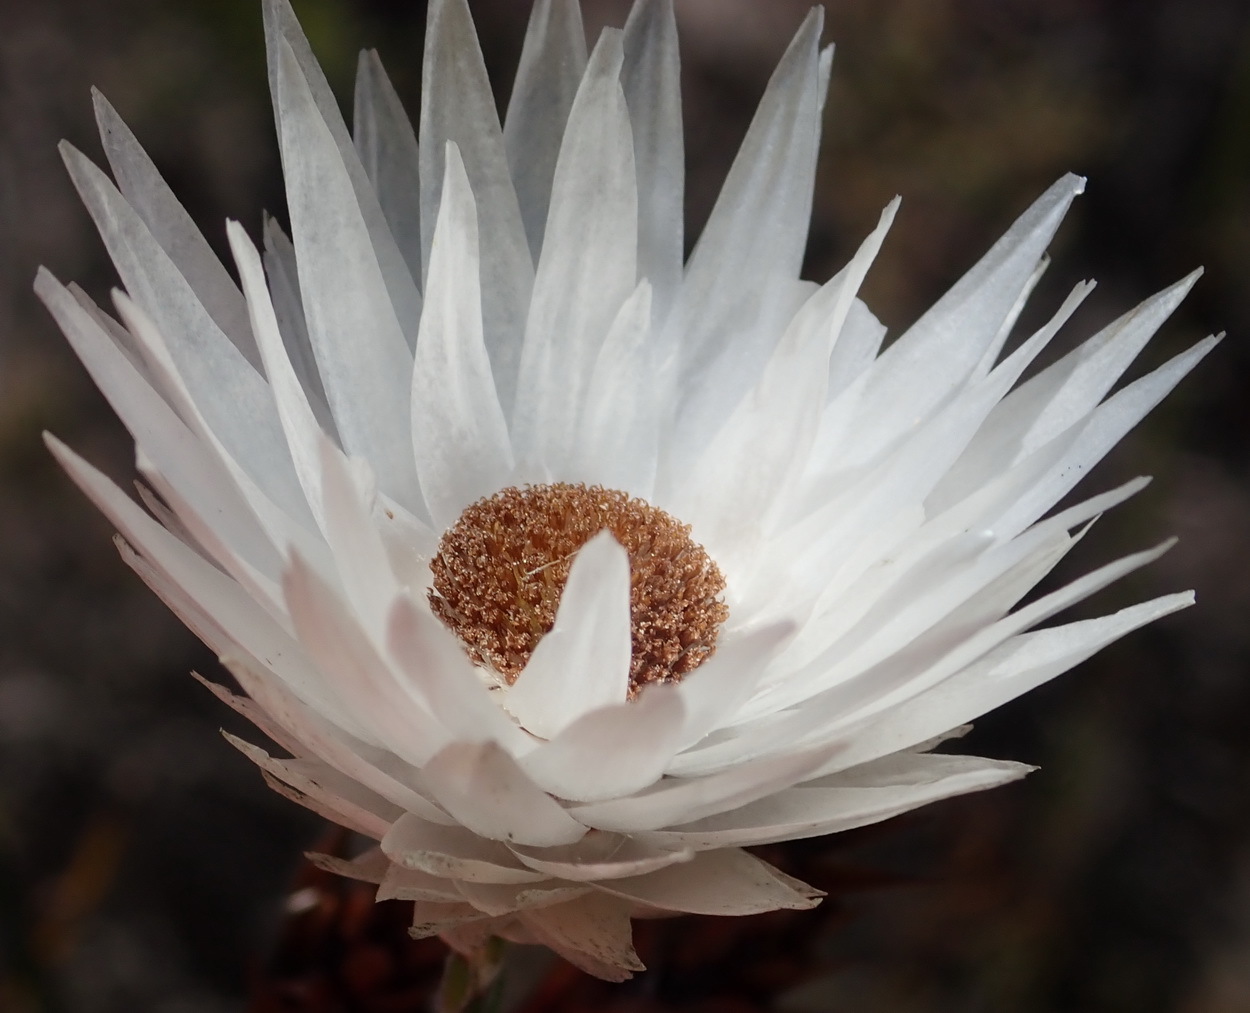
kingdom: Plantae
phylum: Tracheophyta
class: Magnoliopsida
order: Asterales
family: Asteraceae
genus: Edmondia
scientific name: Edmondia sesamoides
